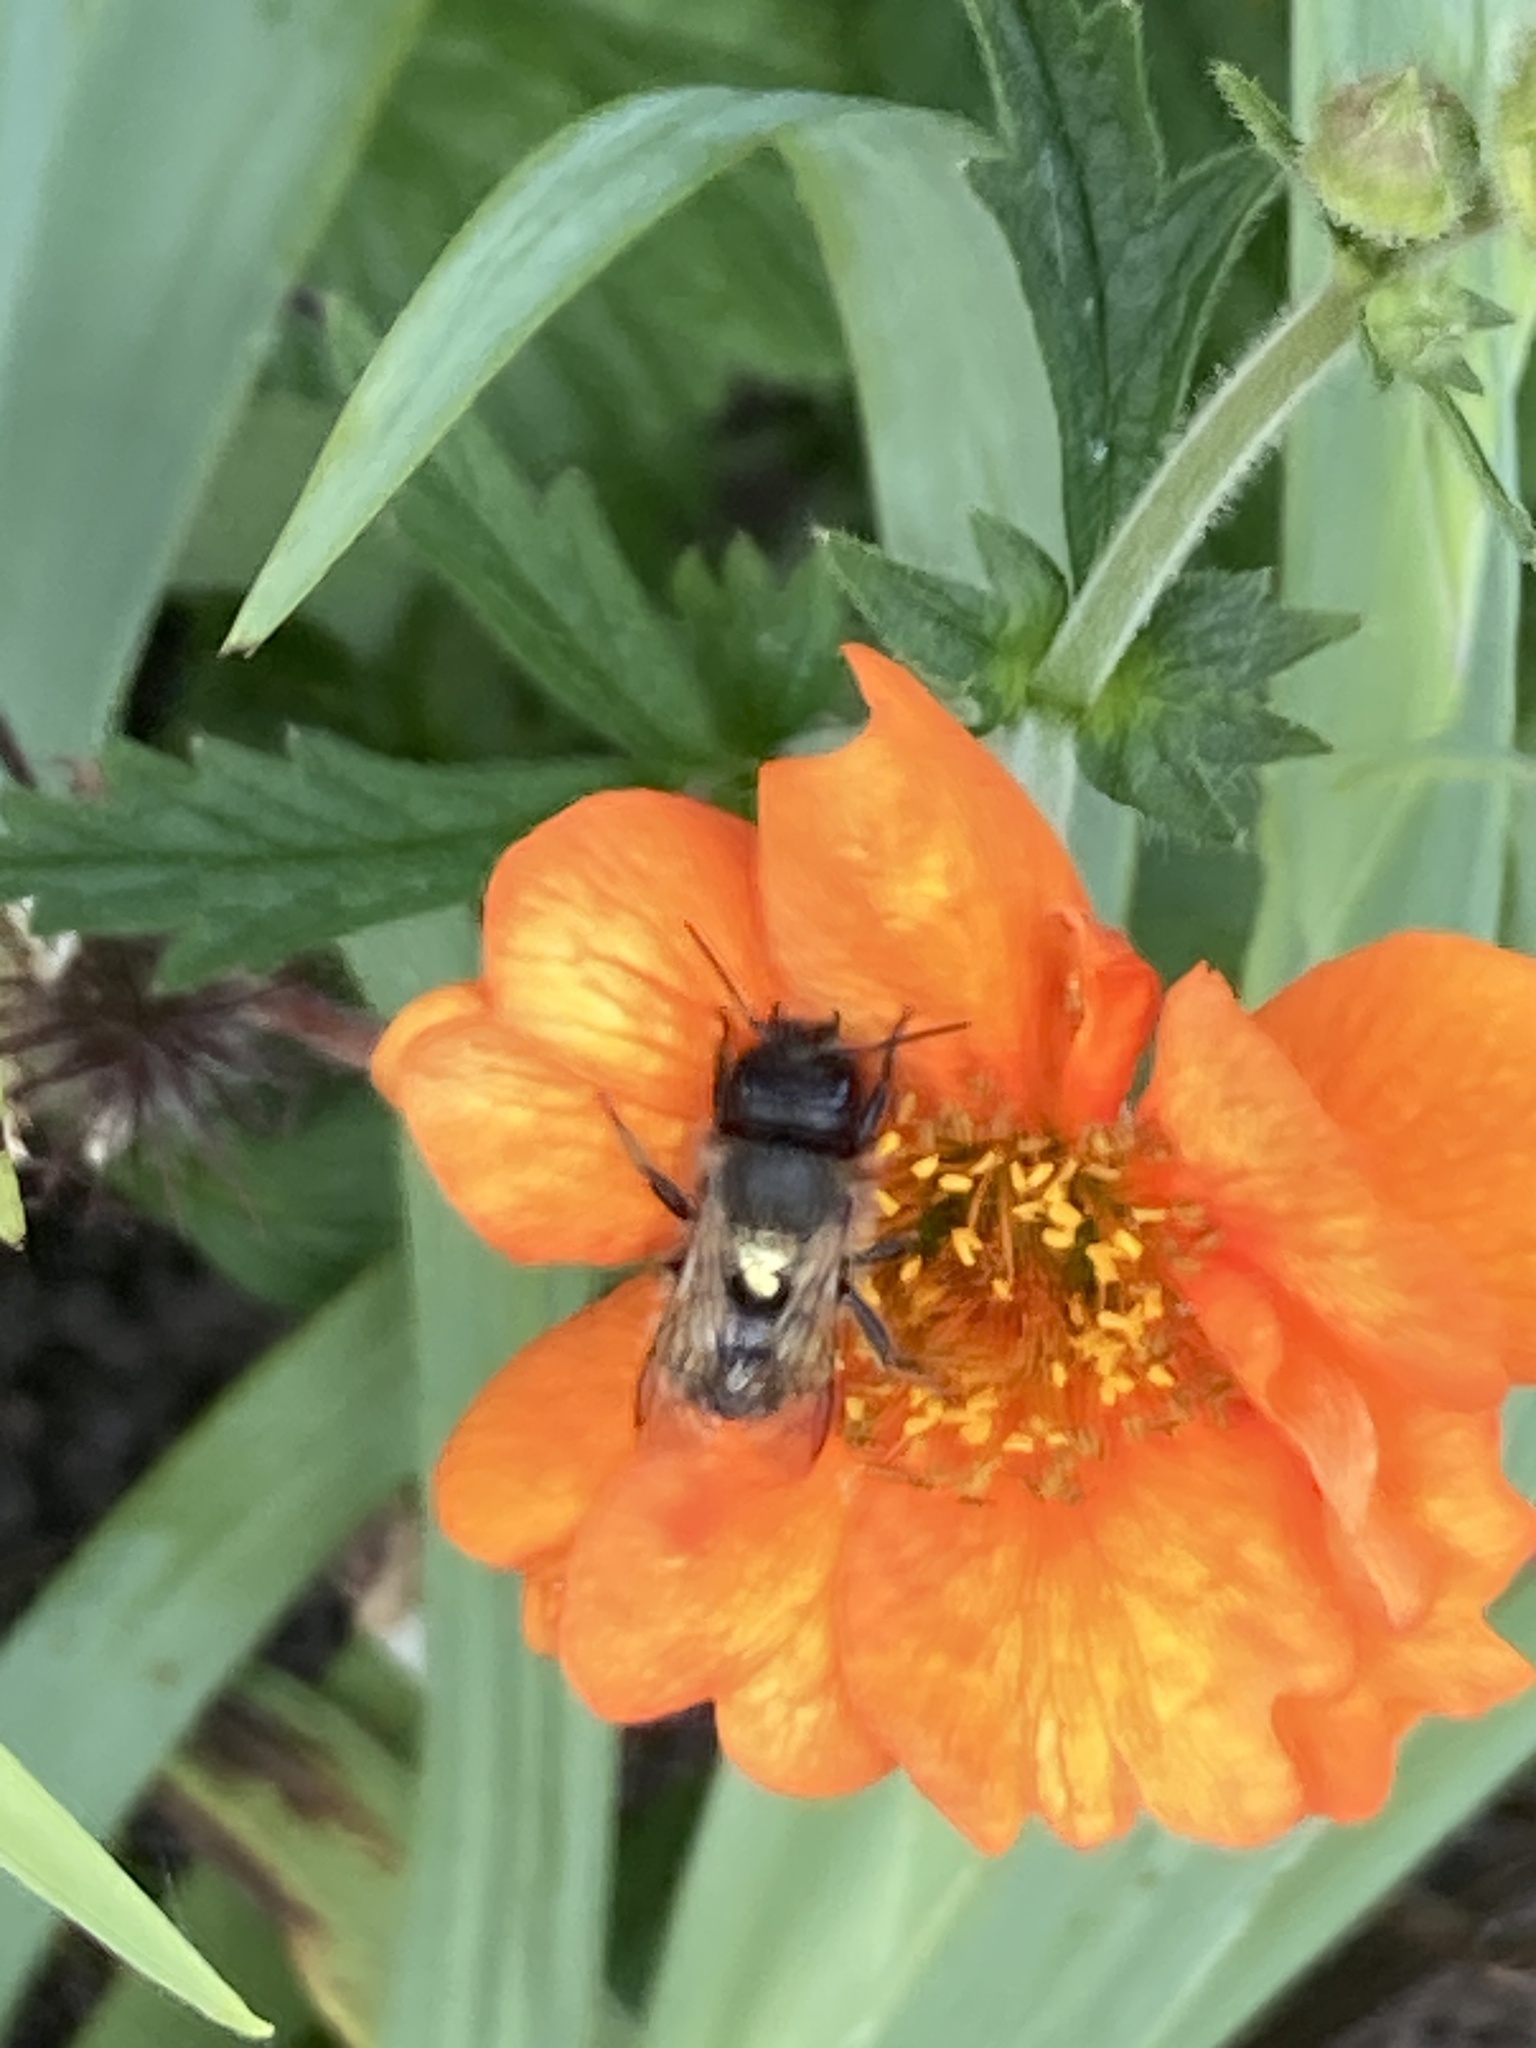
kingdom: Animalia
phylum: Arthropoda
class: Insecta
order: Hymenoptera
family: Megachilidae
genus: Osmia
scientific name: Osmia bicornis
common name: Red mason bee
